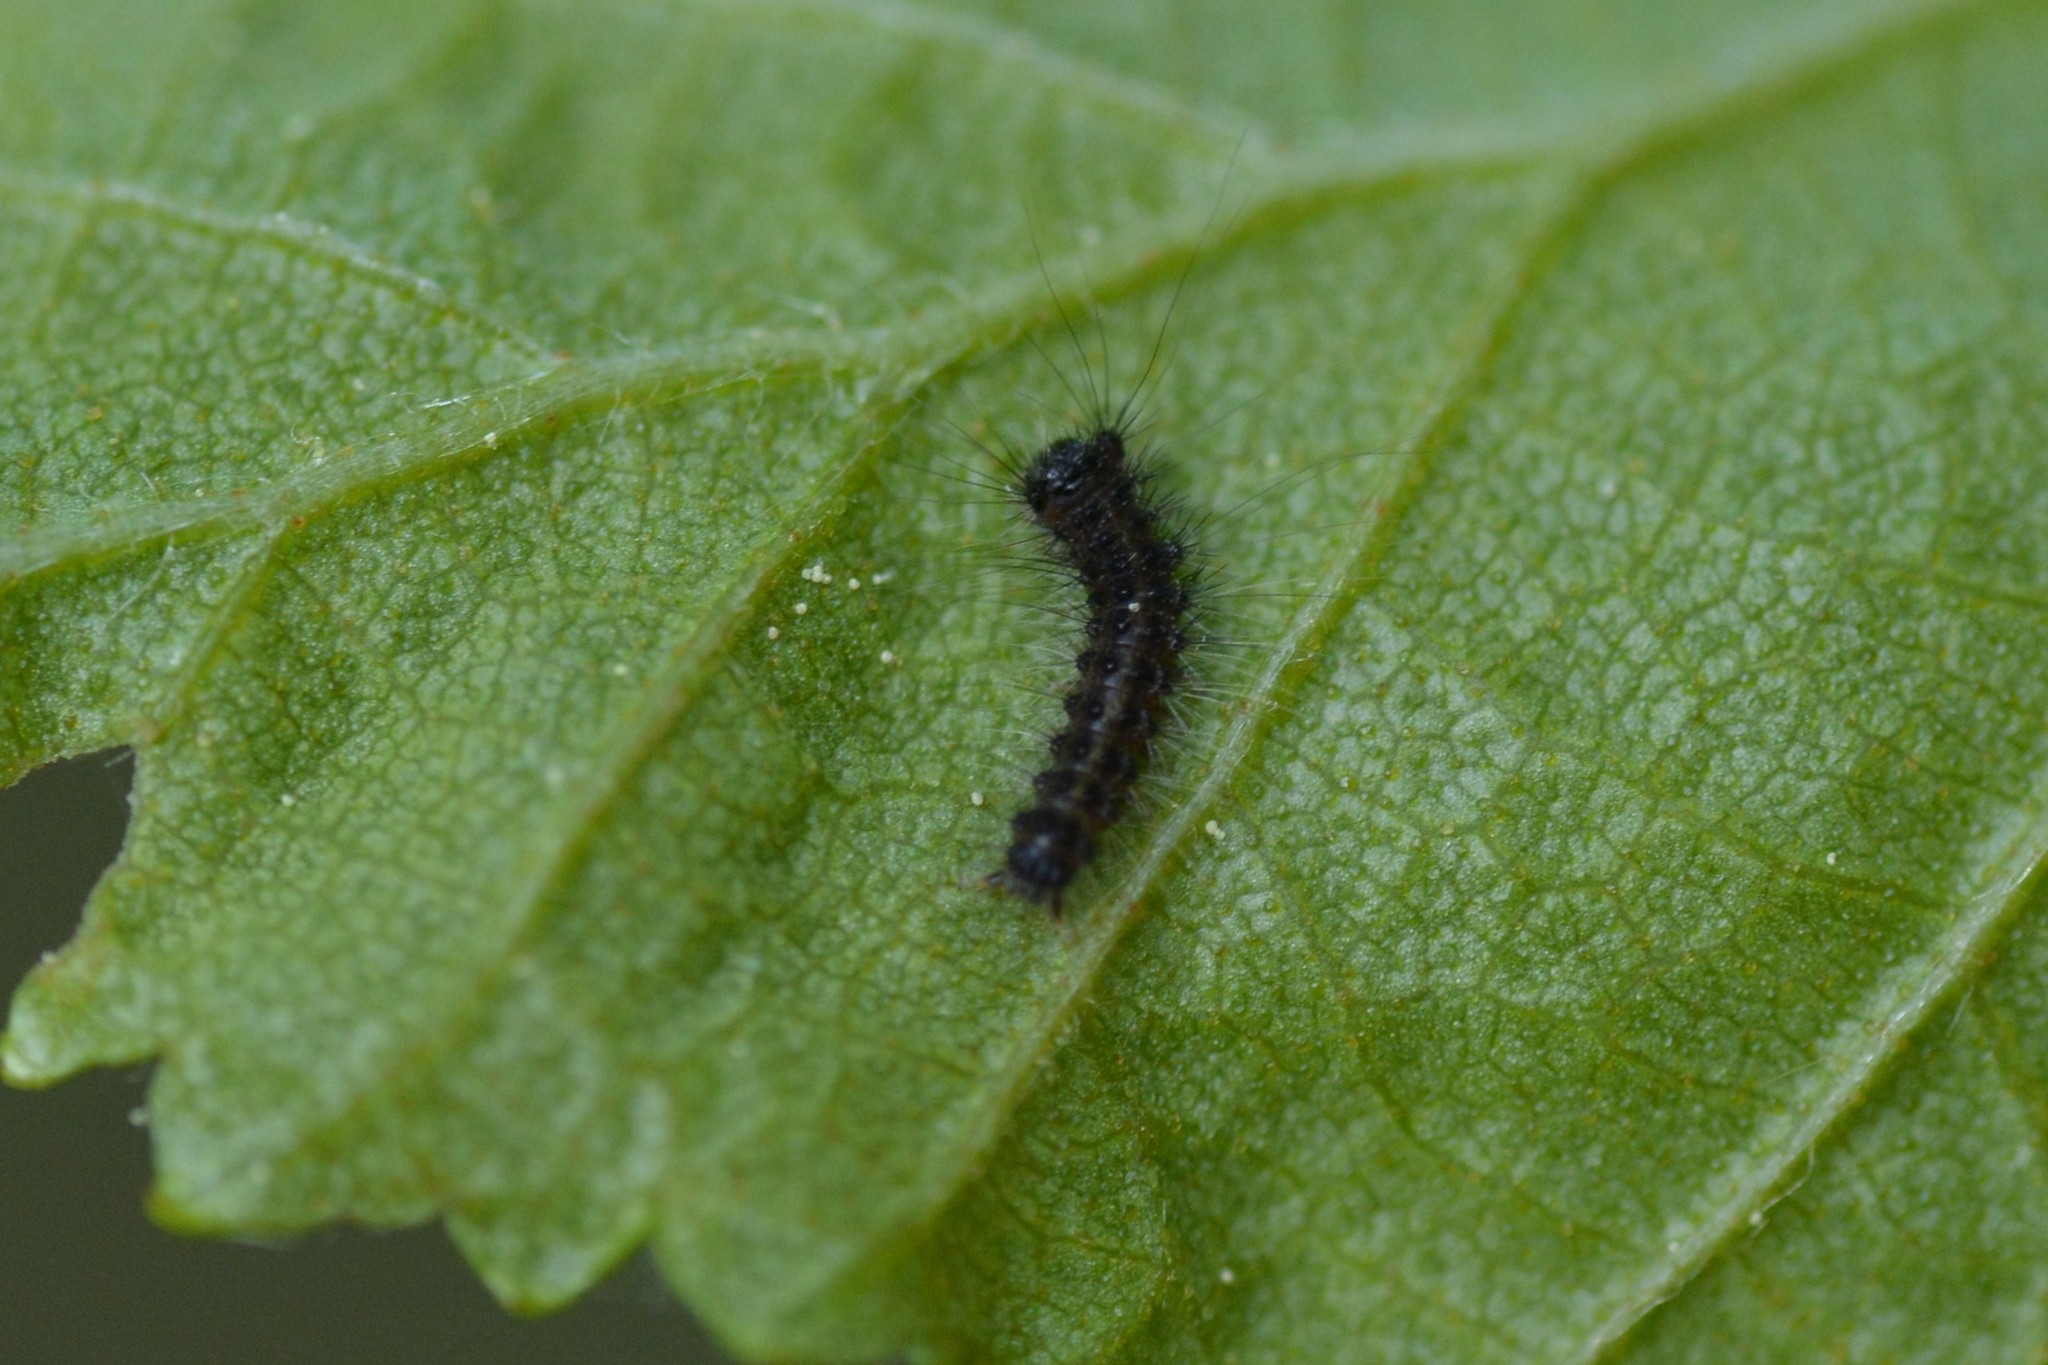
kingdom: Animalia
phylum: Arthropoda
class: Insecta
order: Lepidoptera
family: Erebidae
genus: Lymantria
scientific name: Lymantria dispar
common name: Gypsy moth
